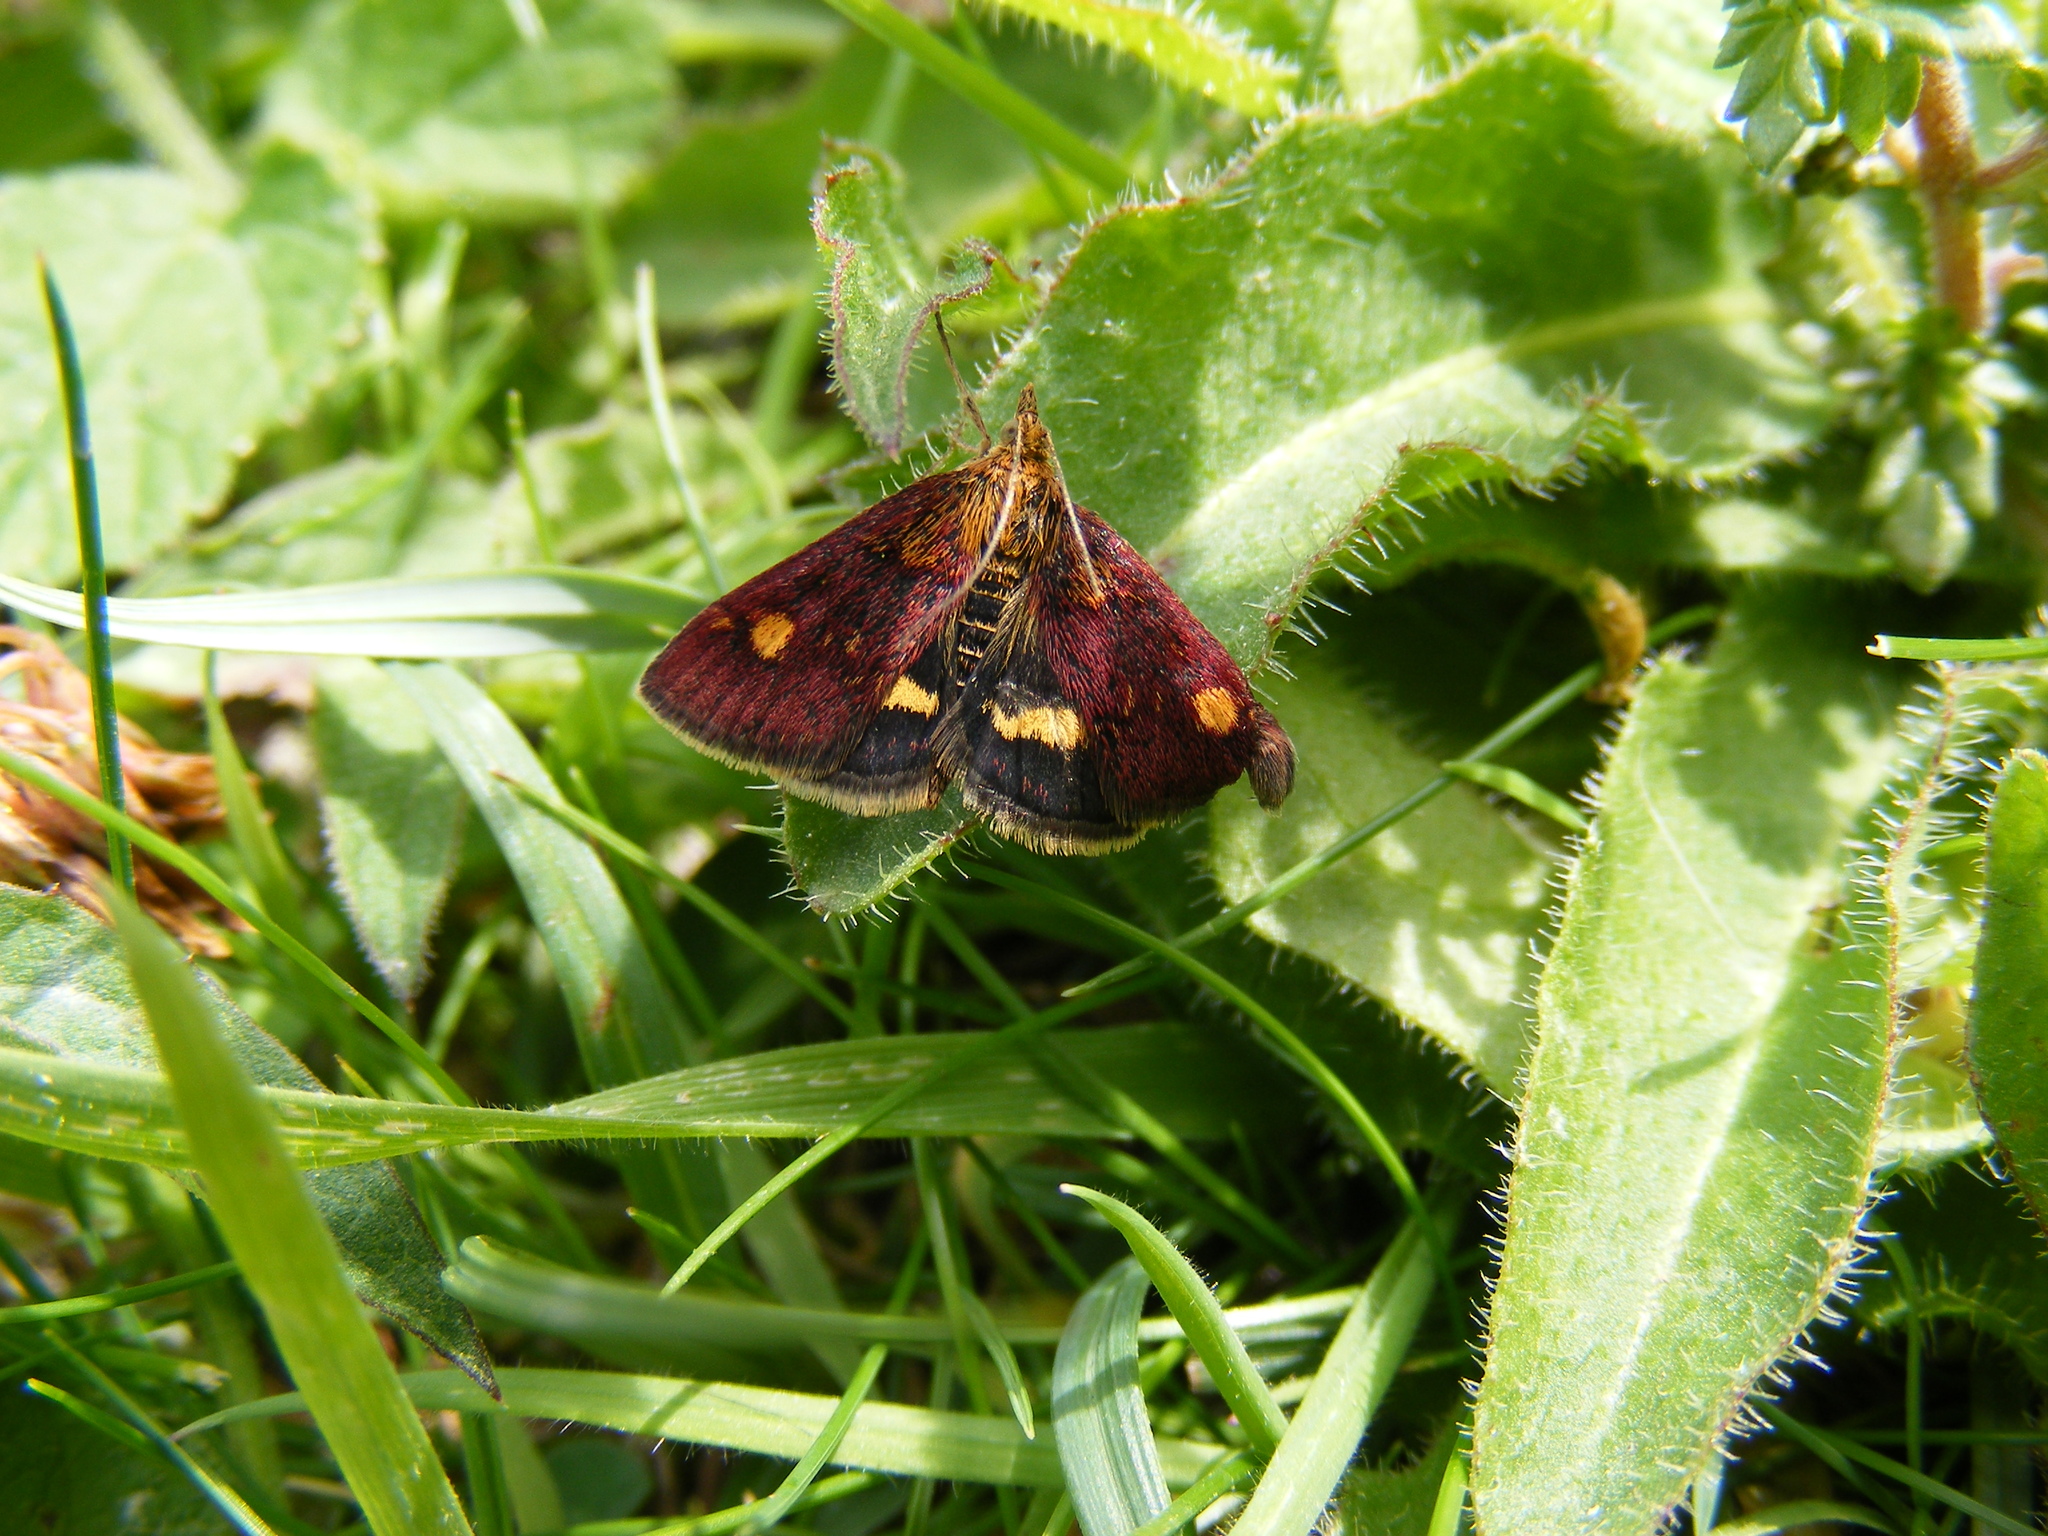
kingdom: Animalia
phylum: Arthropoda
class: Insecta
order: Lepidoptera
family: Crambidae
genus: Pyrausta
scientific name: Pyrausta aurata
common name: Small purple & gold
